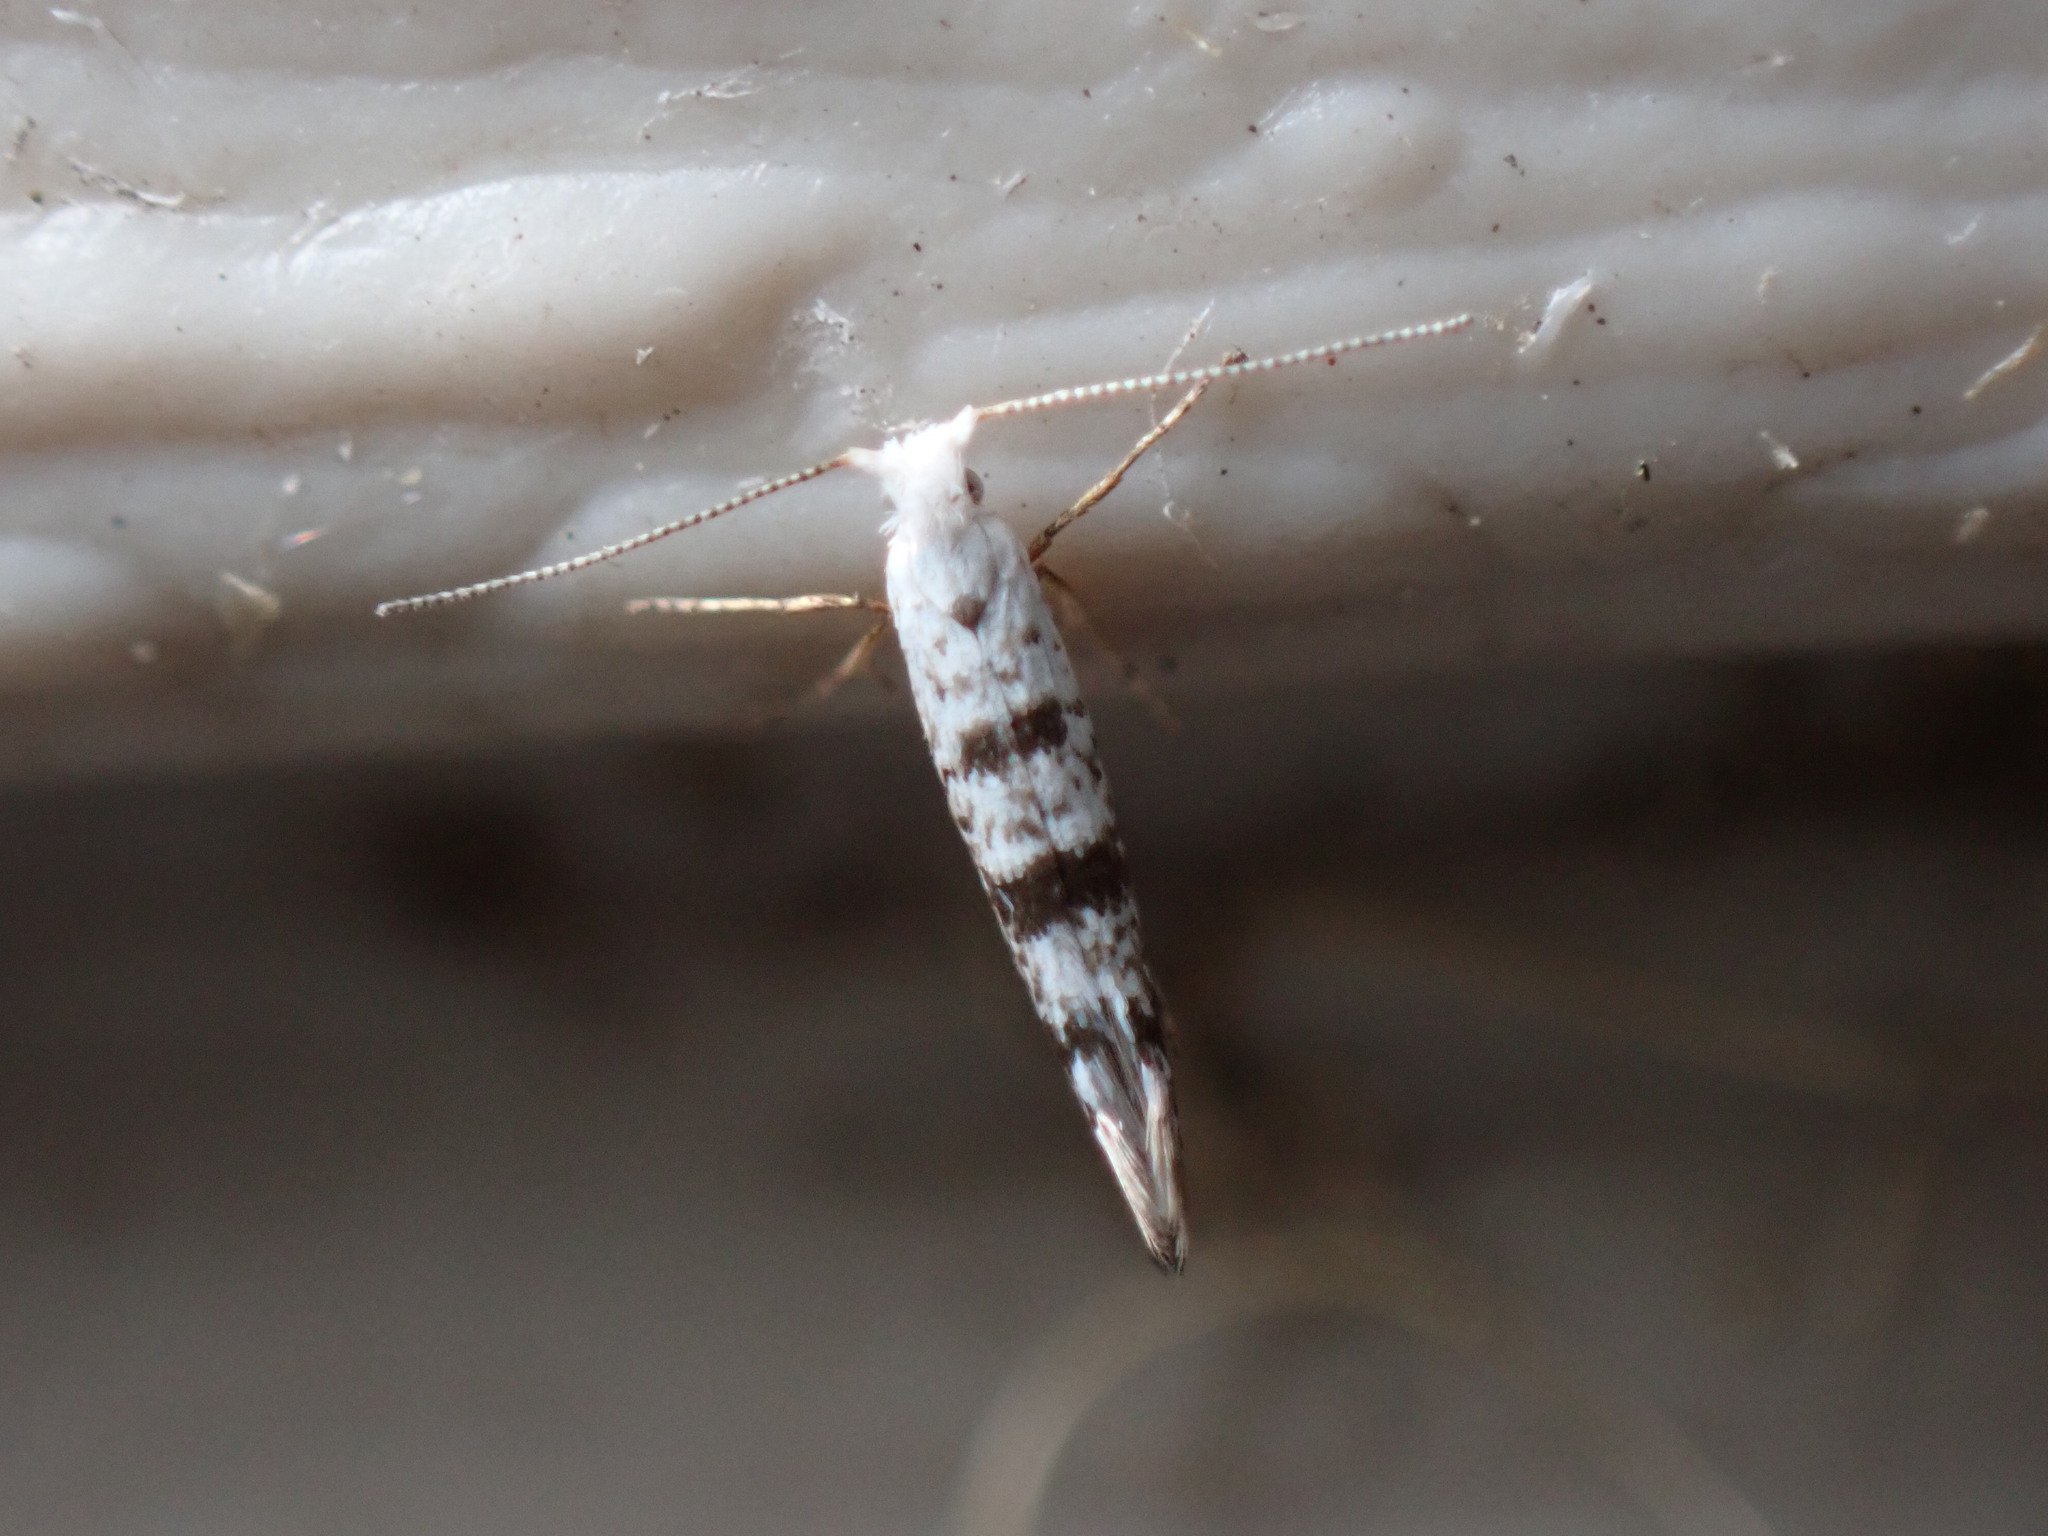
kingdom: Animalia
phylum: Arthropoda
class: Insecta
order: Lepidoptera
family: Argyresthiidae
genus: Argyresthia
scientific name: Argyresthia thuiella
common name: Arborvitae leafminer
